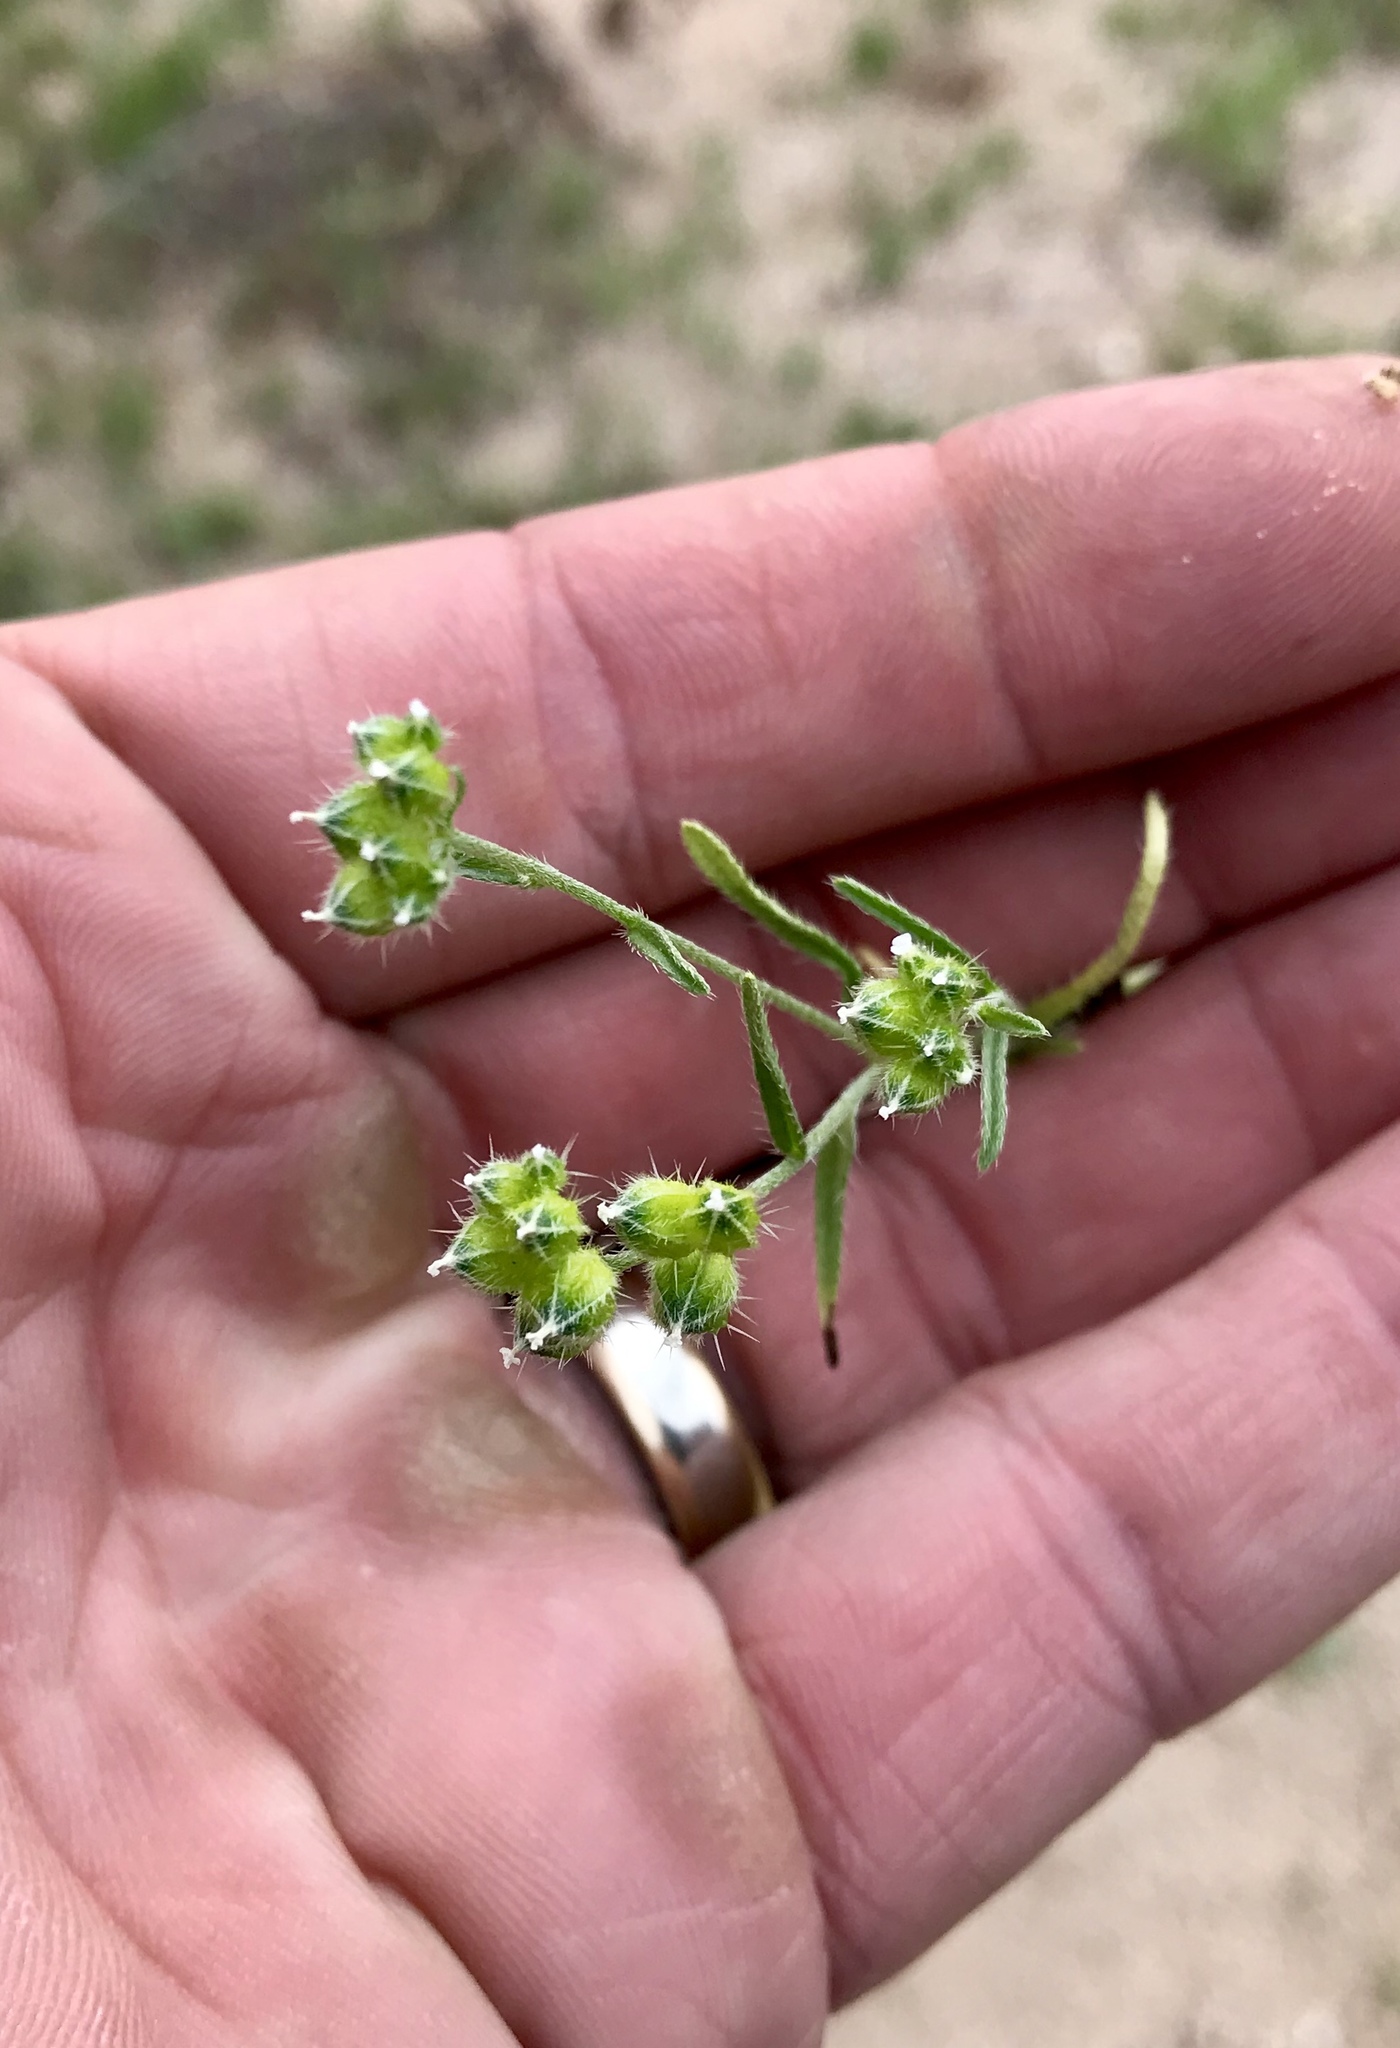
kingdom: Plantae
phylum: Tracheophyta
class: Magnoliopsida
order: Boraginales
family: Boraginaceae
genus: Cryptantha
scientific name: Cryptantha pterocarya
